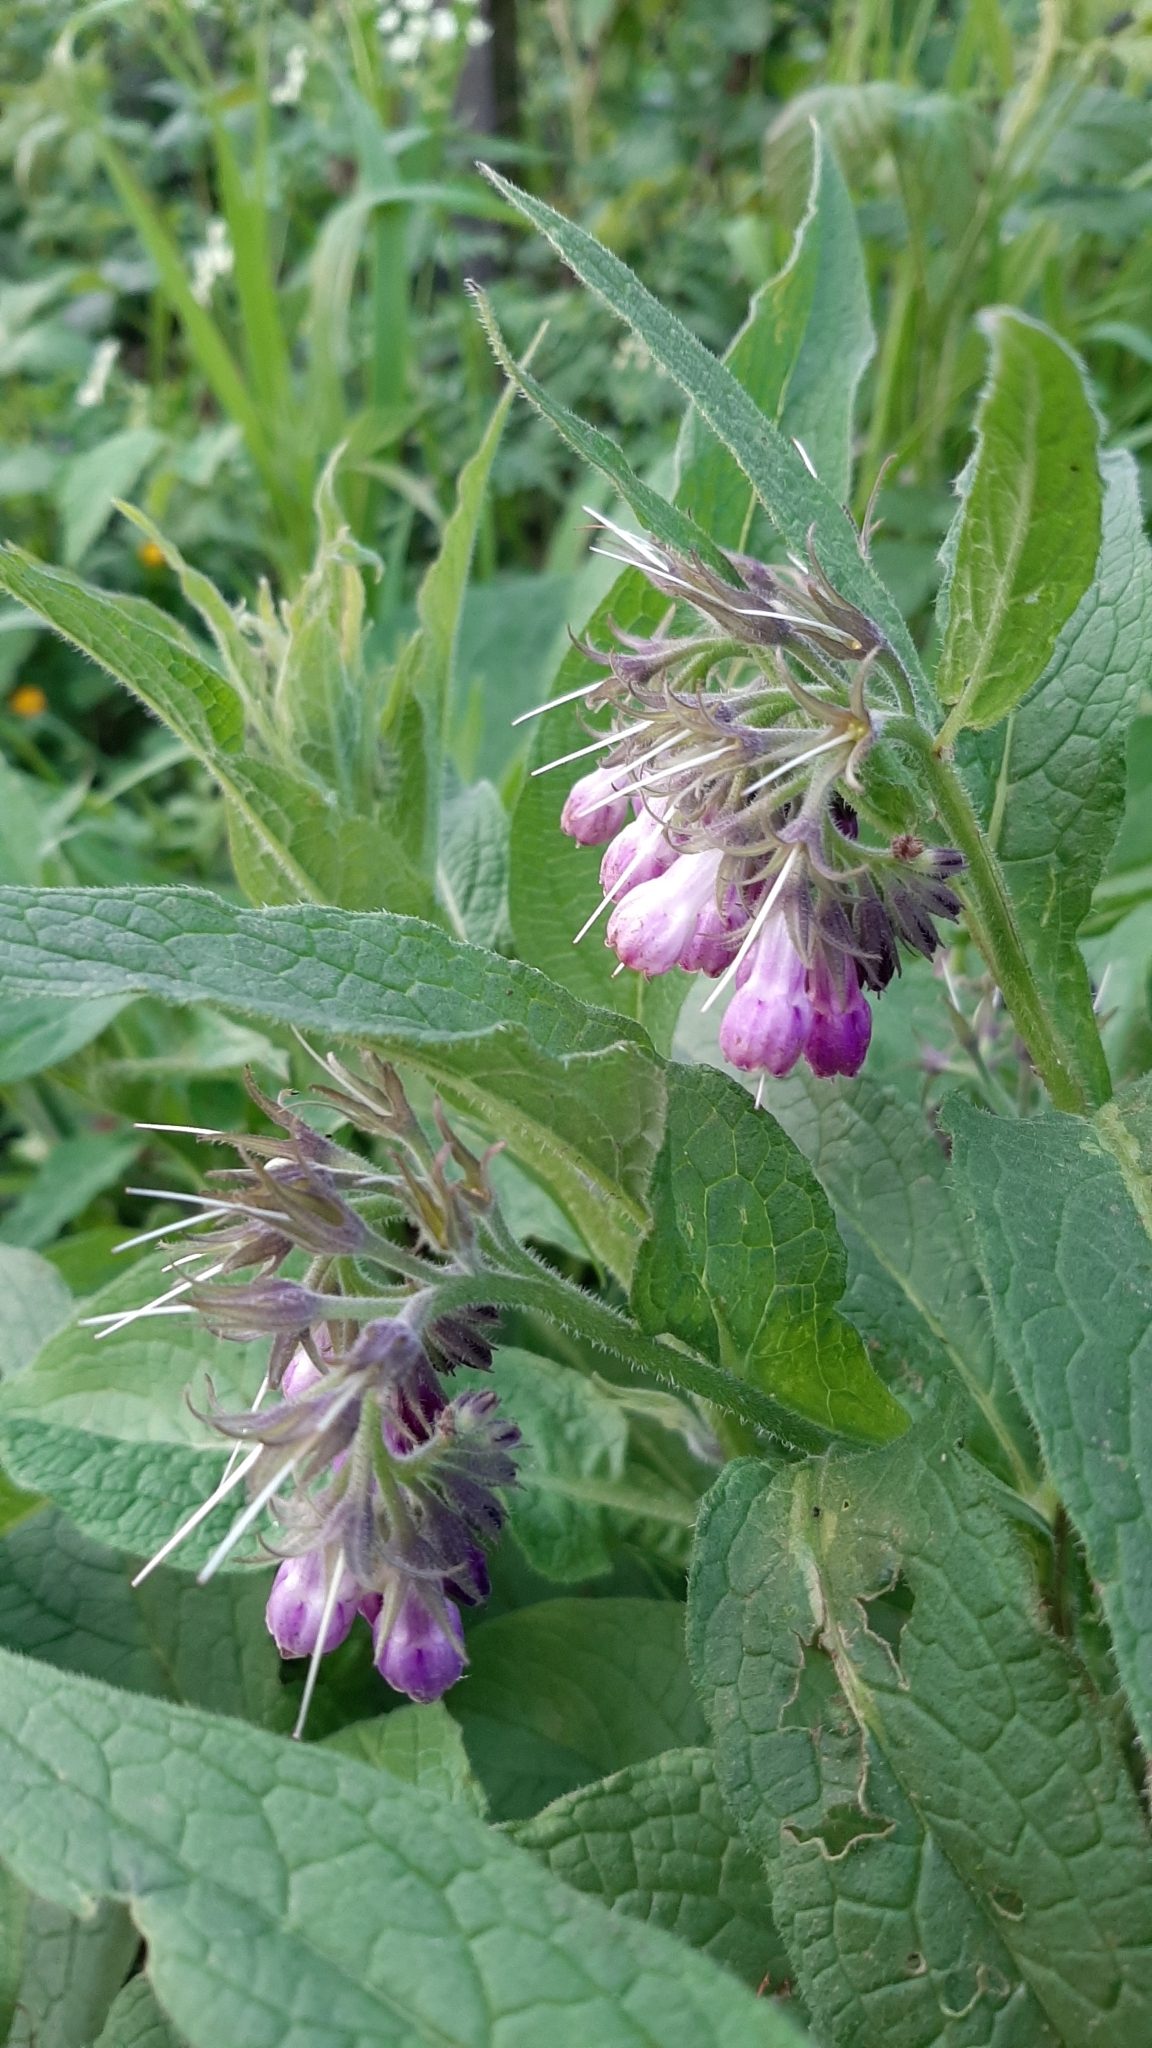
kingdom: Plantae
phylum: Tracheophyta
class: Magnoliopsida
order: Boraginales
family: Boraginaceae
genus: Symphytum
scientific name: Symphytum officinale
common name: Common comfrey
